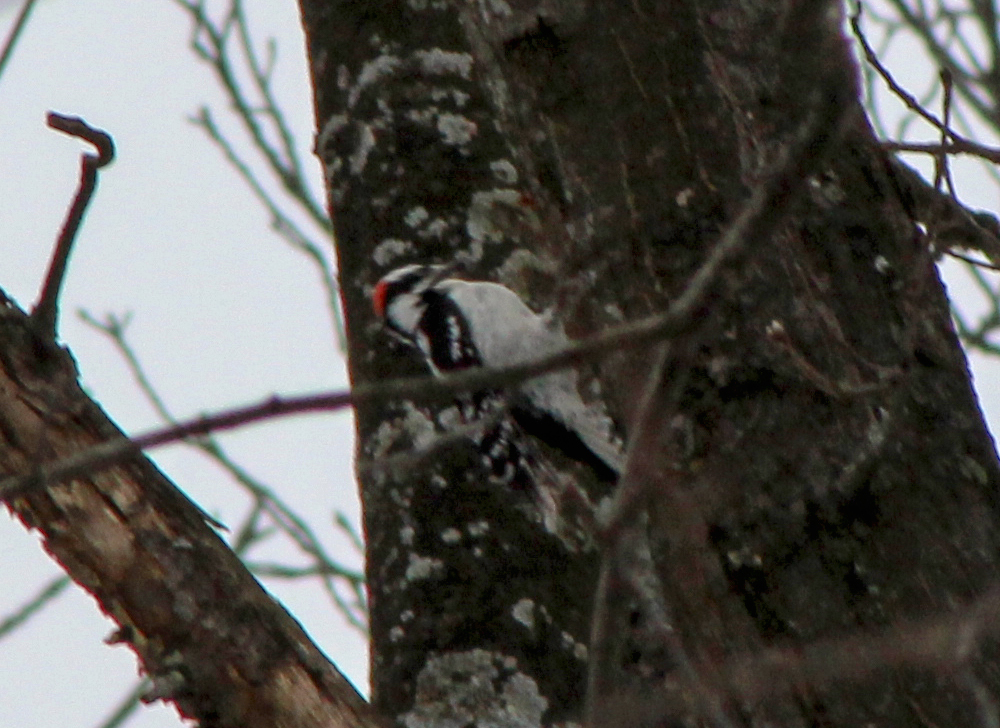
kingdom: Animalia
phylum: Chordata
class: Aves
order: Piciformes
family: Picidae
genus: Dryobates
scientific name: Dryobates pubescens
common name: Downy woodpecker
